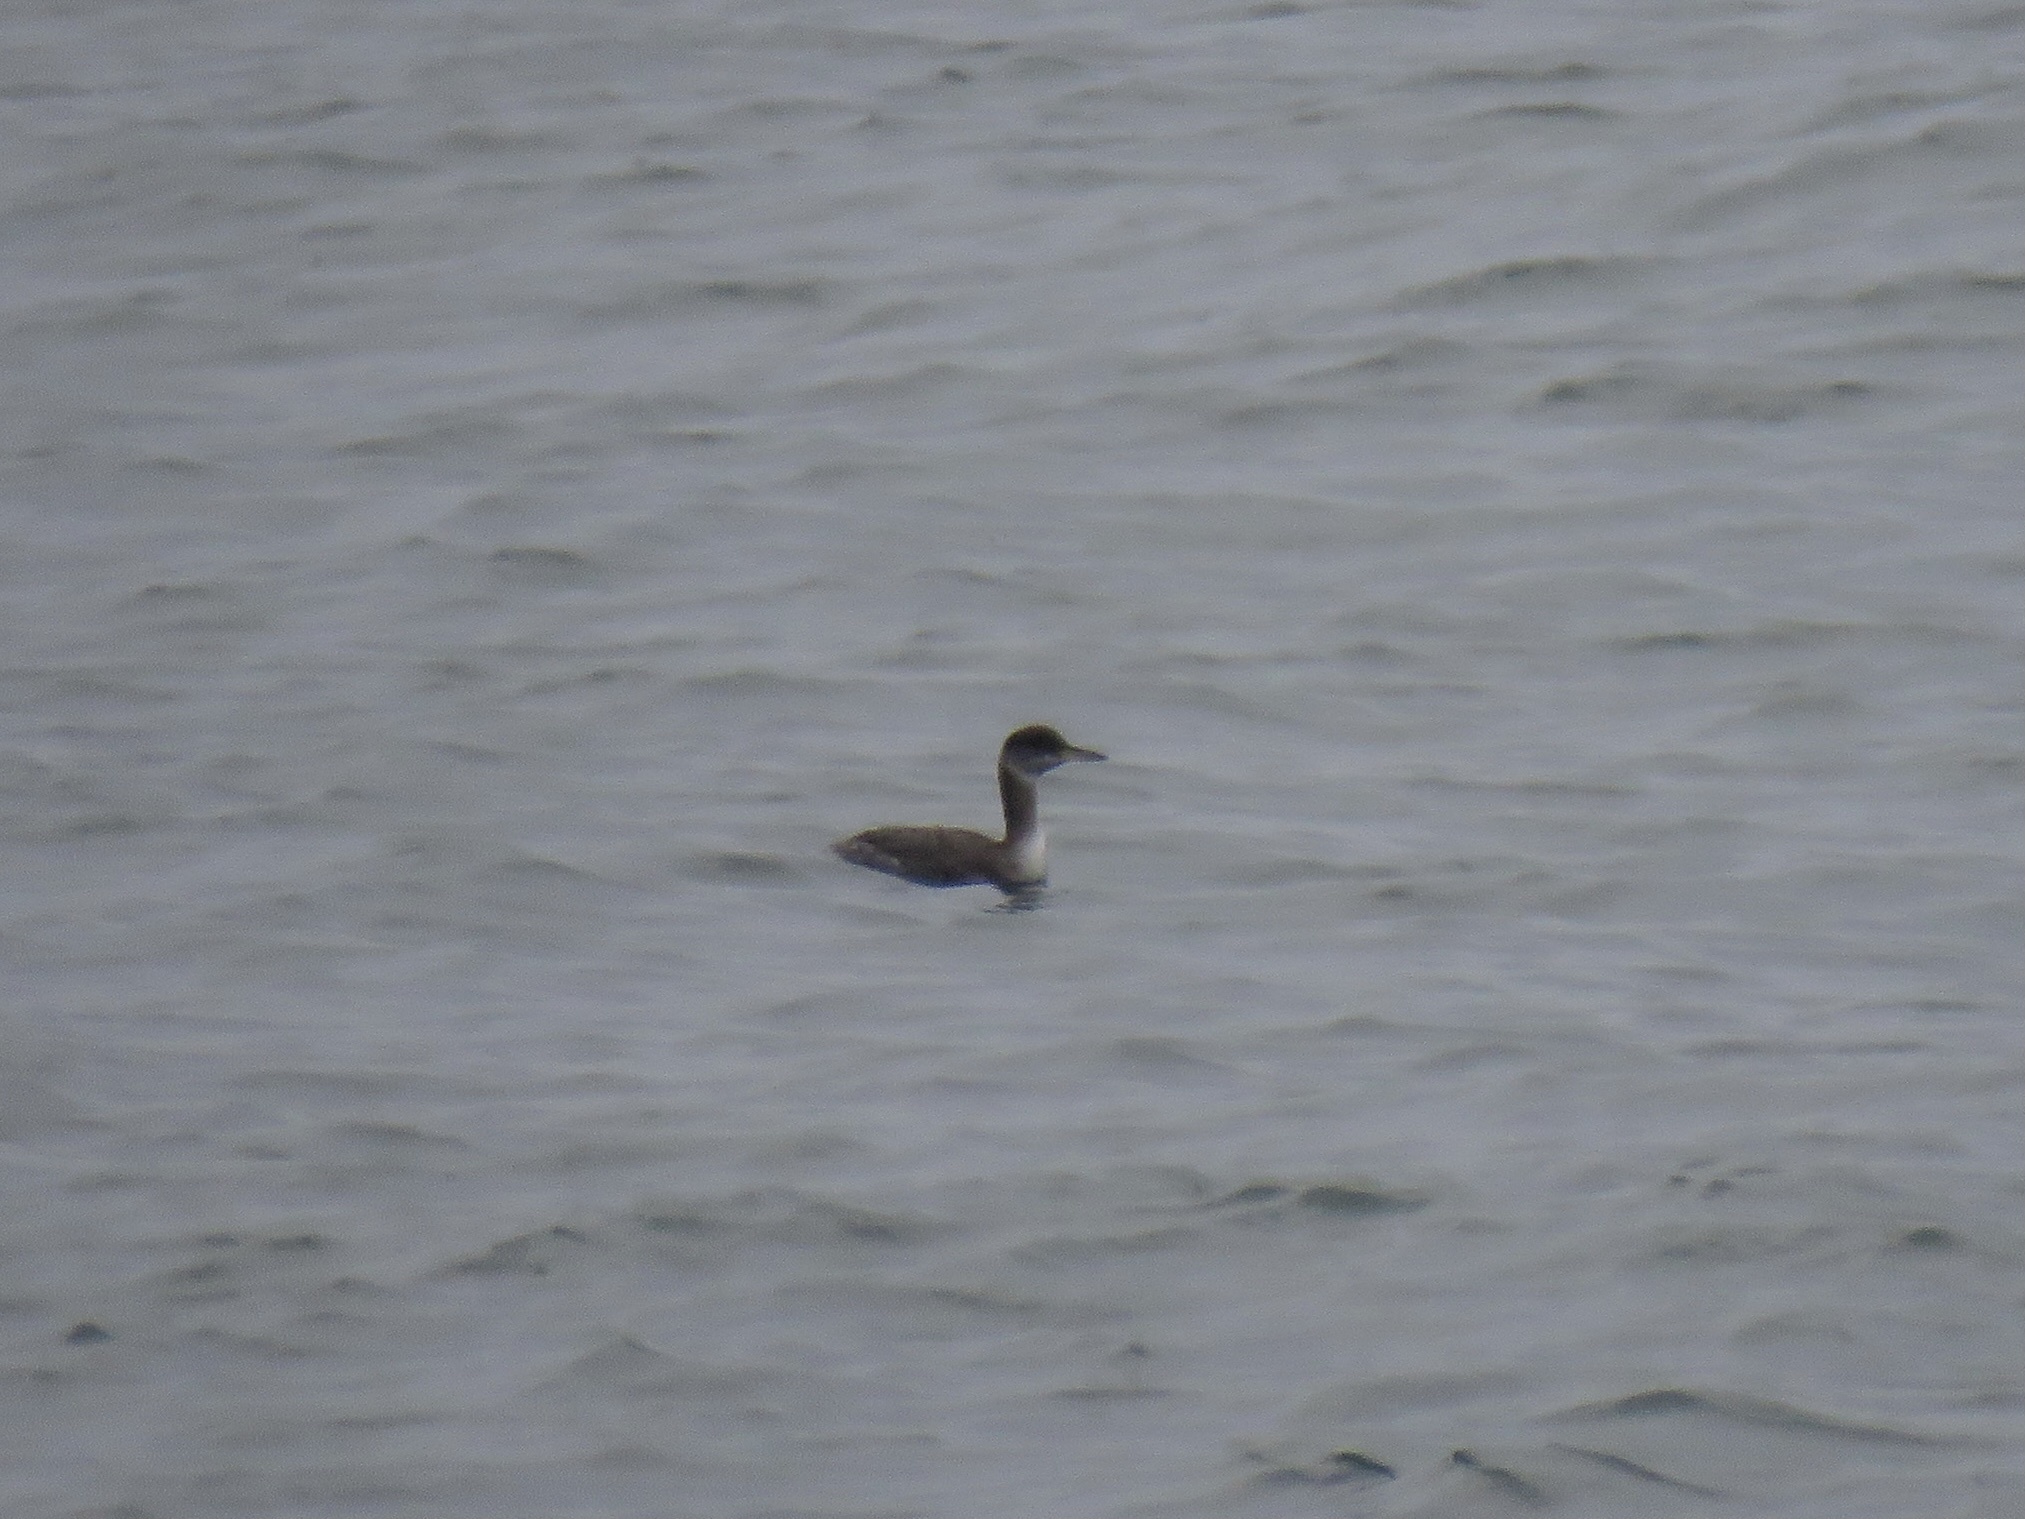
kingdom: Animalia
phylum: Chordata
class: Aves
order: Podicipediformes
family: Podicipedidae
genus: Podiceps
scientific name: Podiceps grisegena
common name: Red-necked grebe
